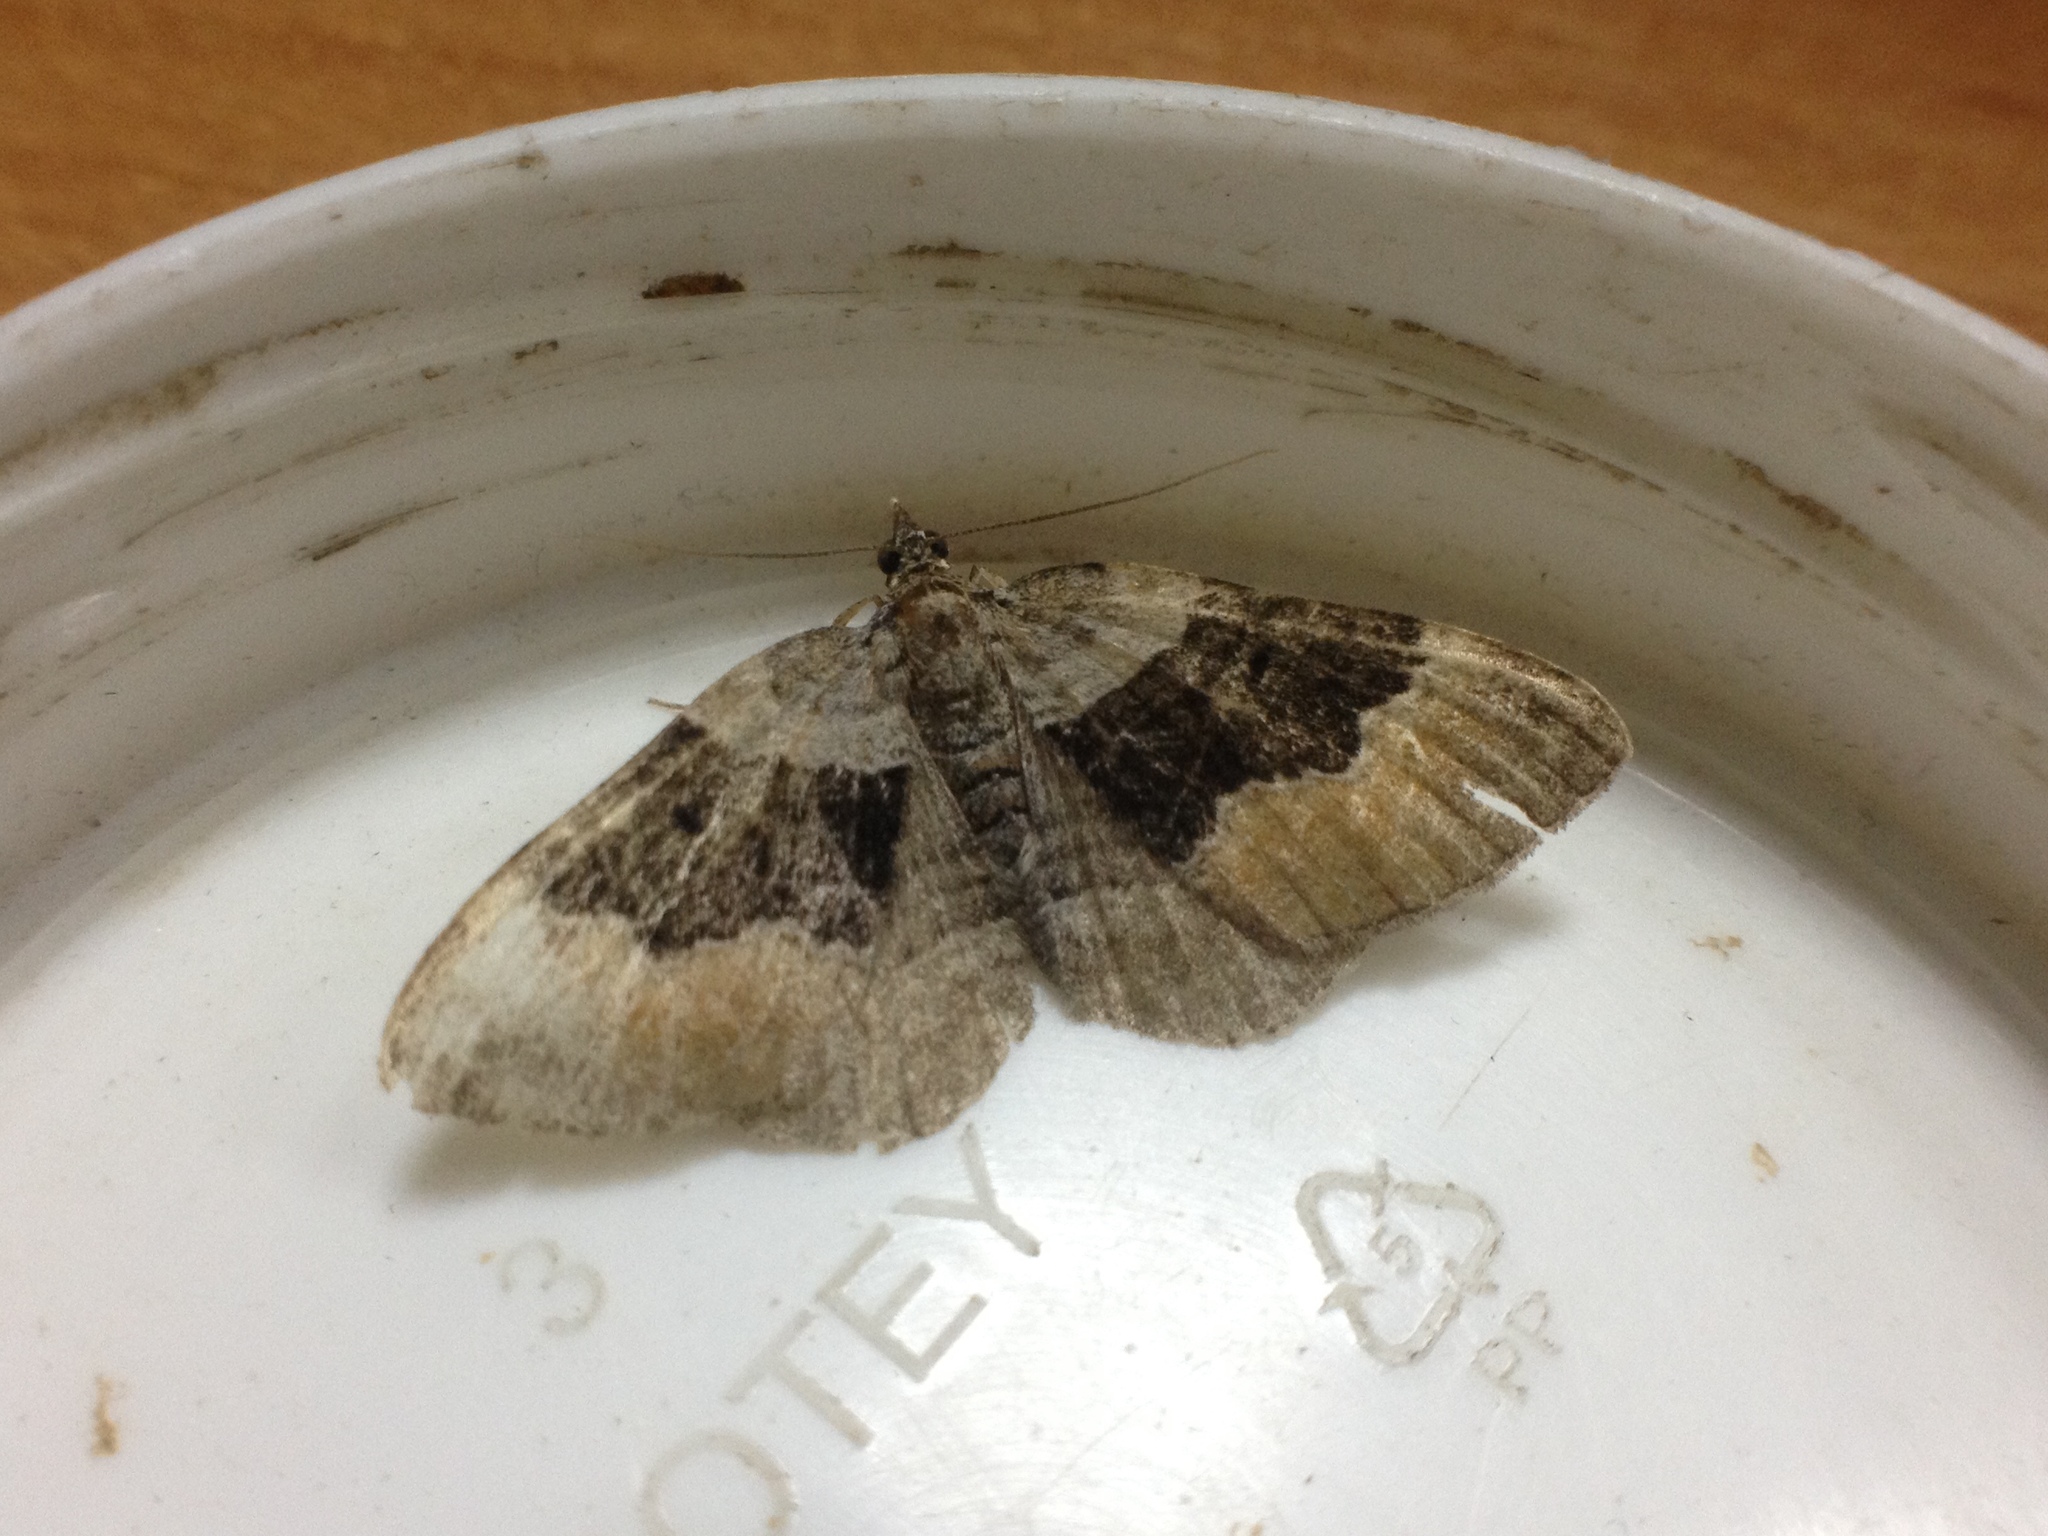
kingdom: Animalia
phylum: Arthropoda
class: Insecta
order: Lepidoptera
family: Geometridae
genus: Xanthorhoe
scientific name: Xanthorhoe quadrifasiata
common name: Large twin-spot carpet
